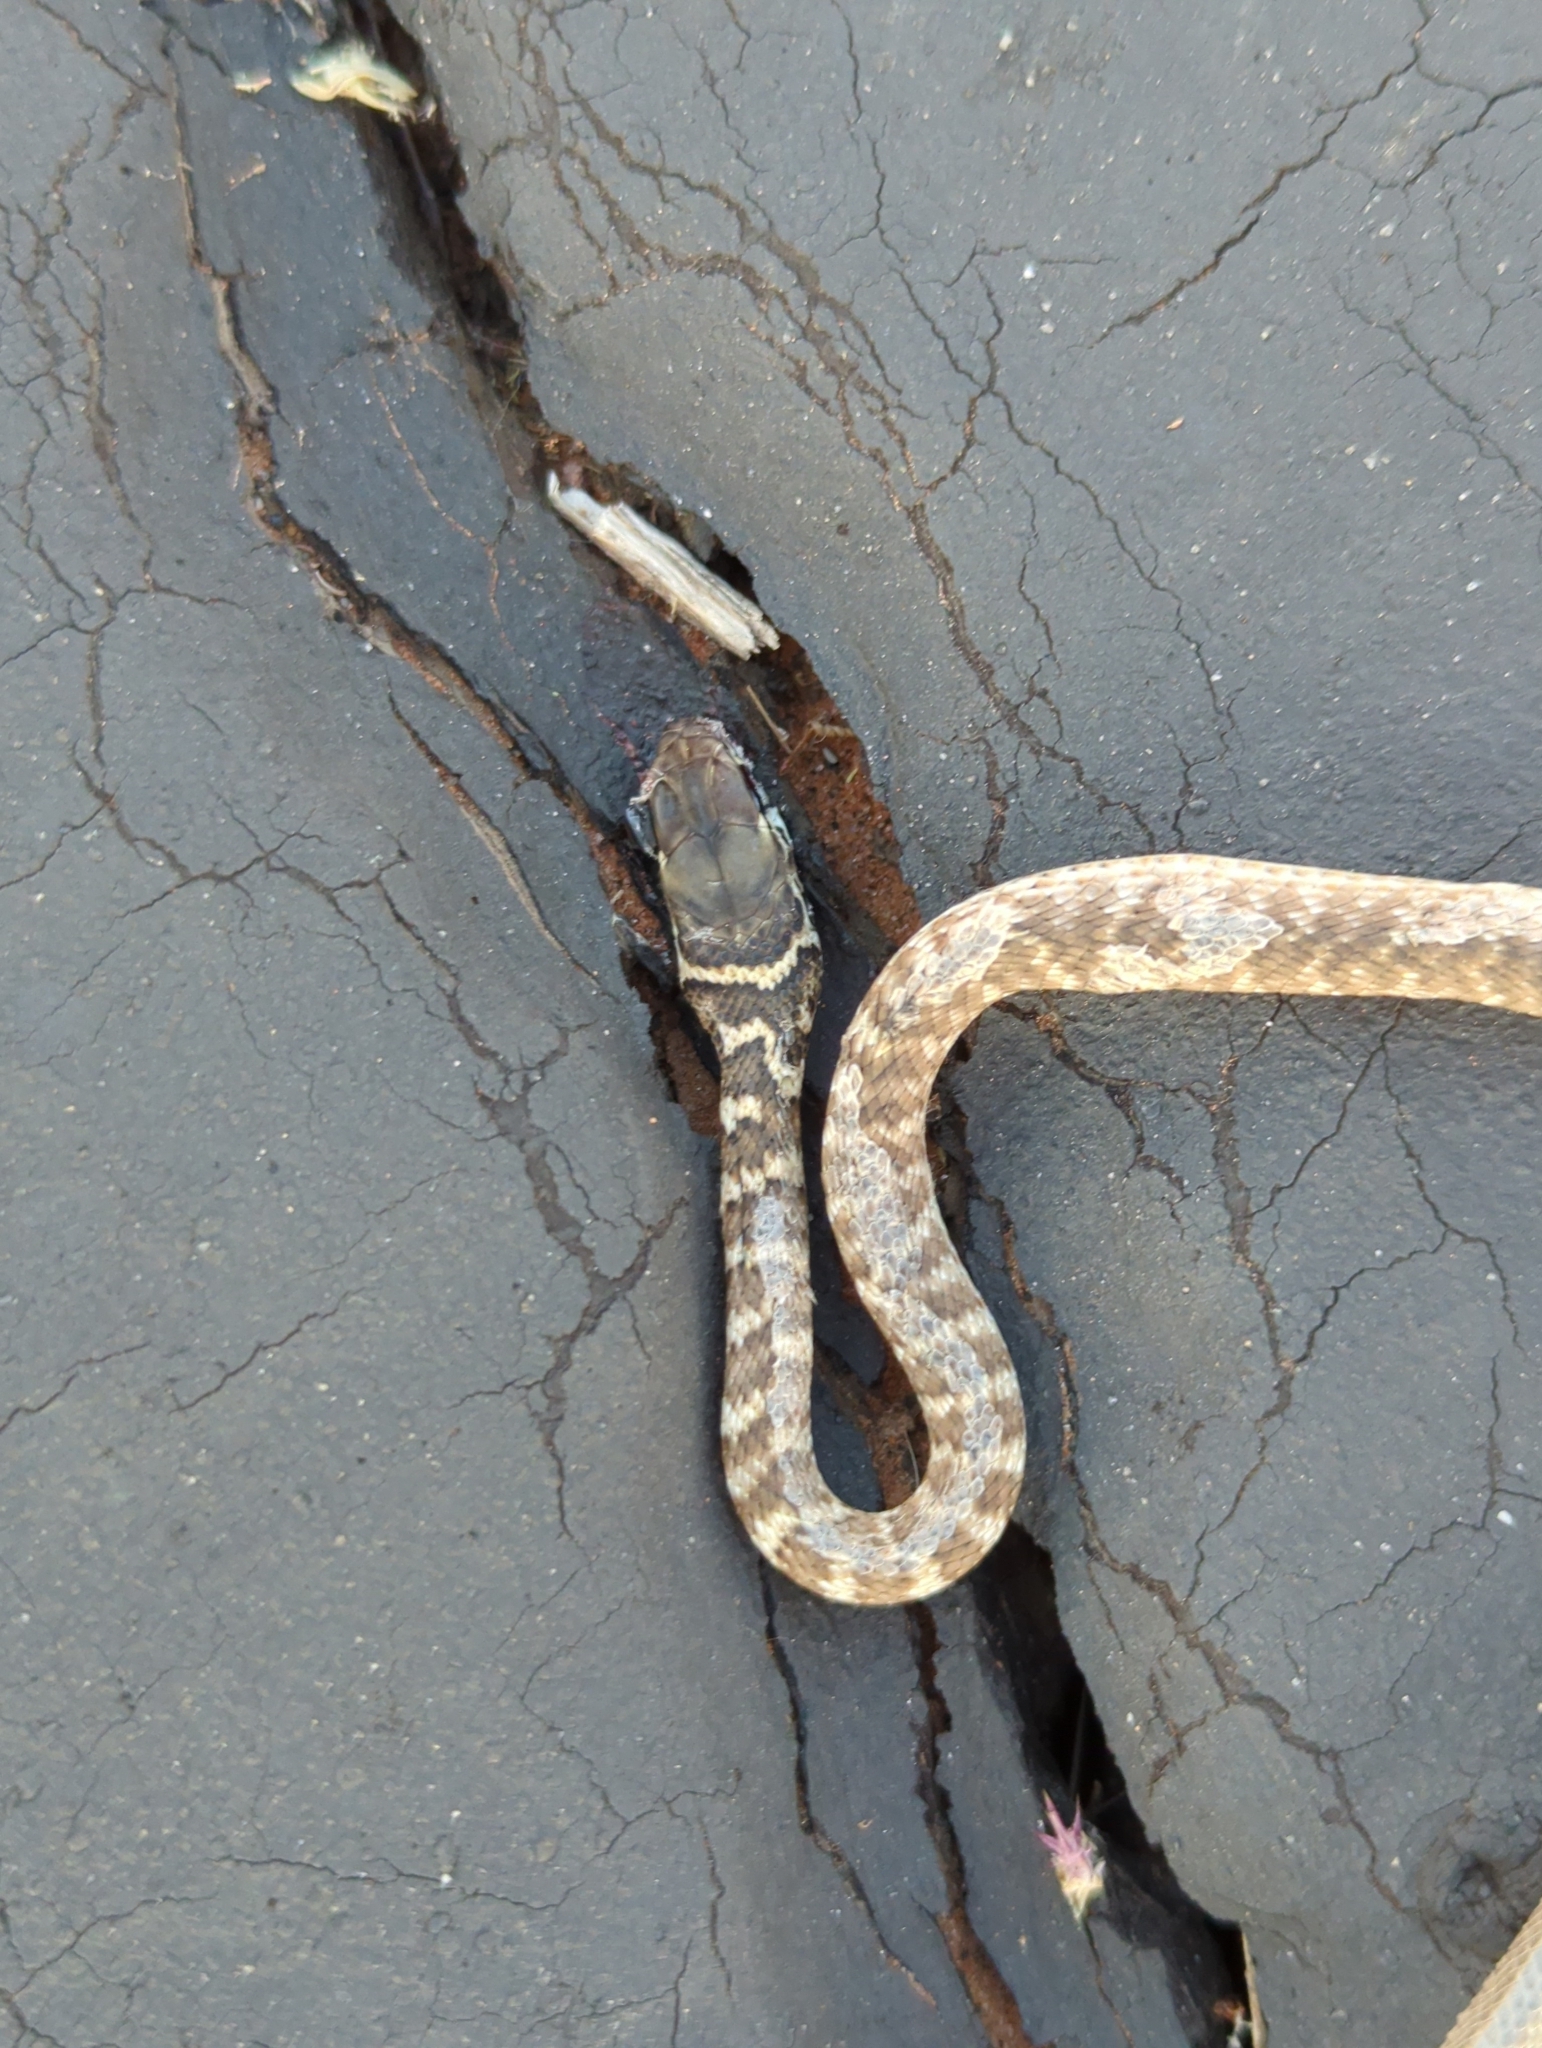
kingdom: Animalia
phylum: Chordata
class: Squamata
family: Colubridae
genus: Masticophis
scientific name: Masticophis flagellum
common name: Coachwhip
